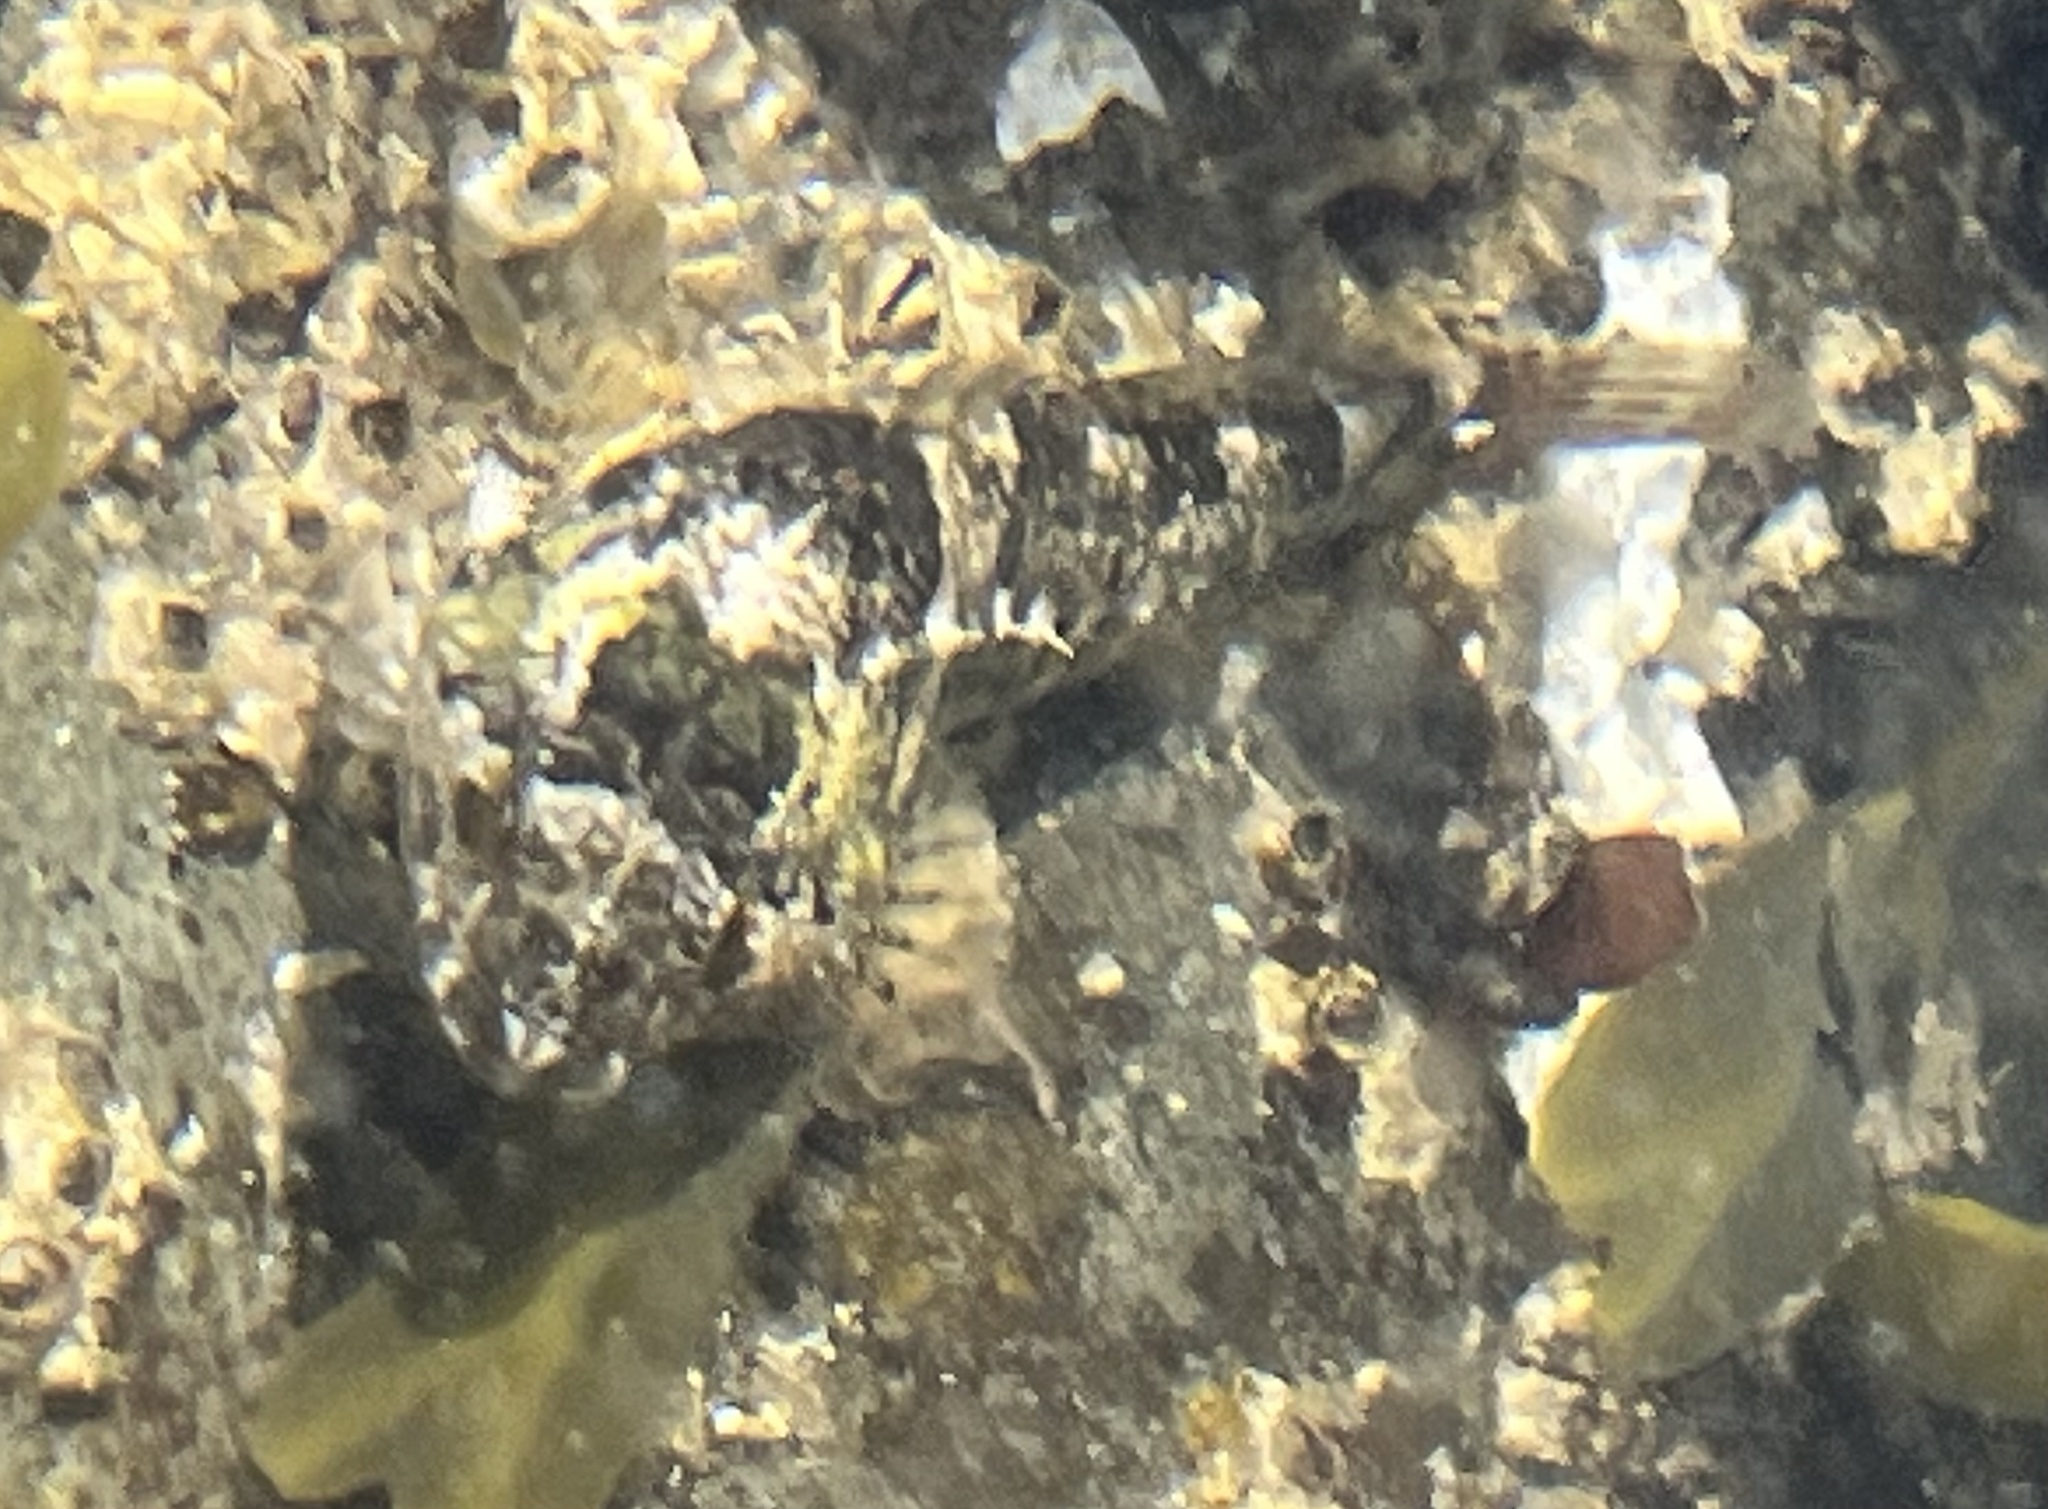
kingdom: Animalia
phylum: Chordata
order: Scorpaeniformes
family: Cottidae
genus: Oligocottus
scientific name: Oligocottus maculosus
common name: Tidepool sculpin
